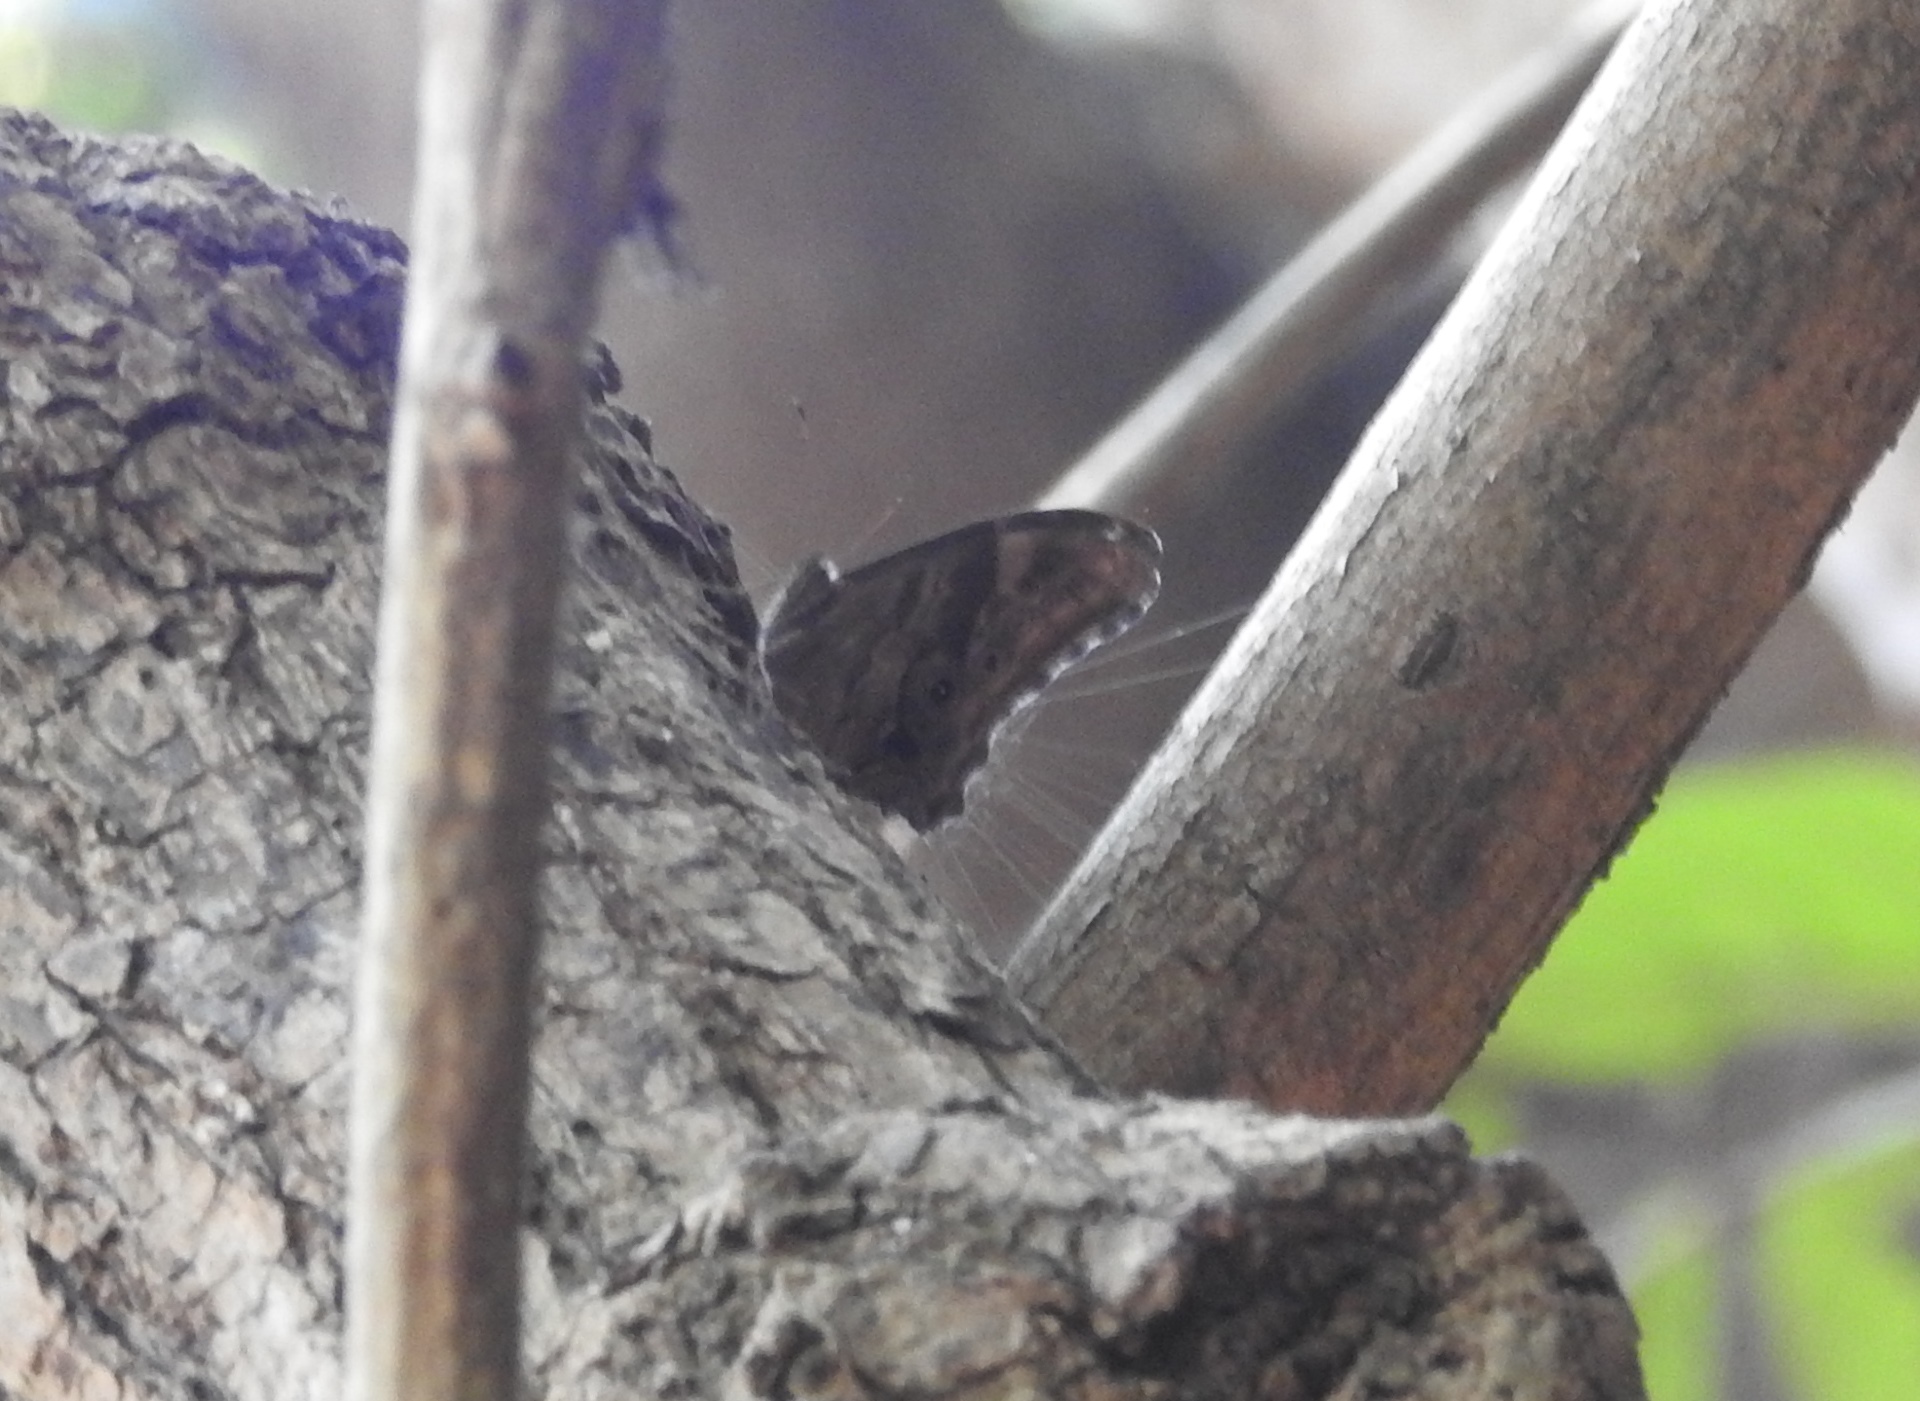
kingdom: Animalia
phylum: Arthropoda
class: Insecta
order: Lepidoptera
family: Nymphalidae
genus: Lethe
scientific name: Lethe drypetis
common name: Tamil treebrown
